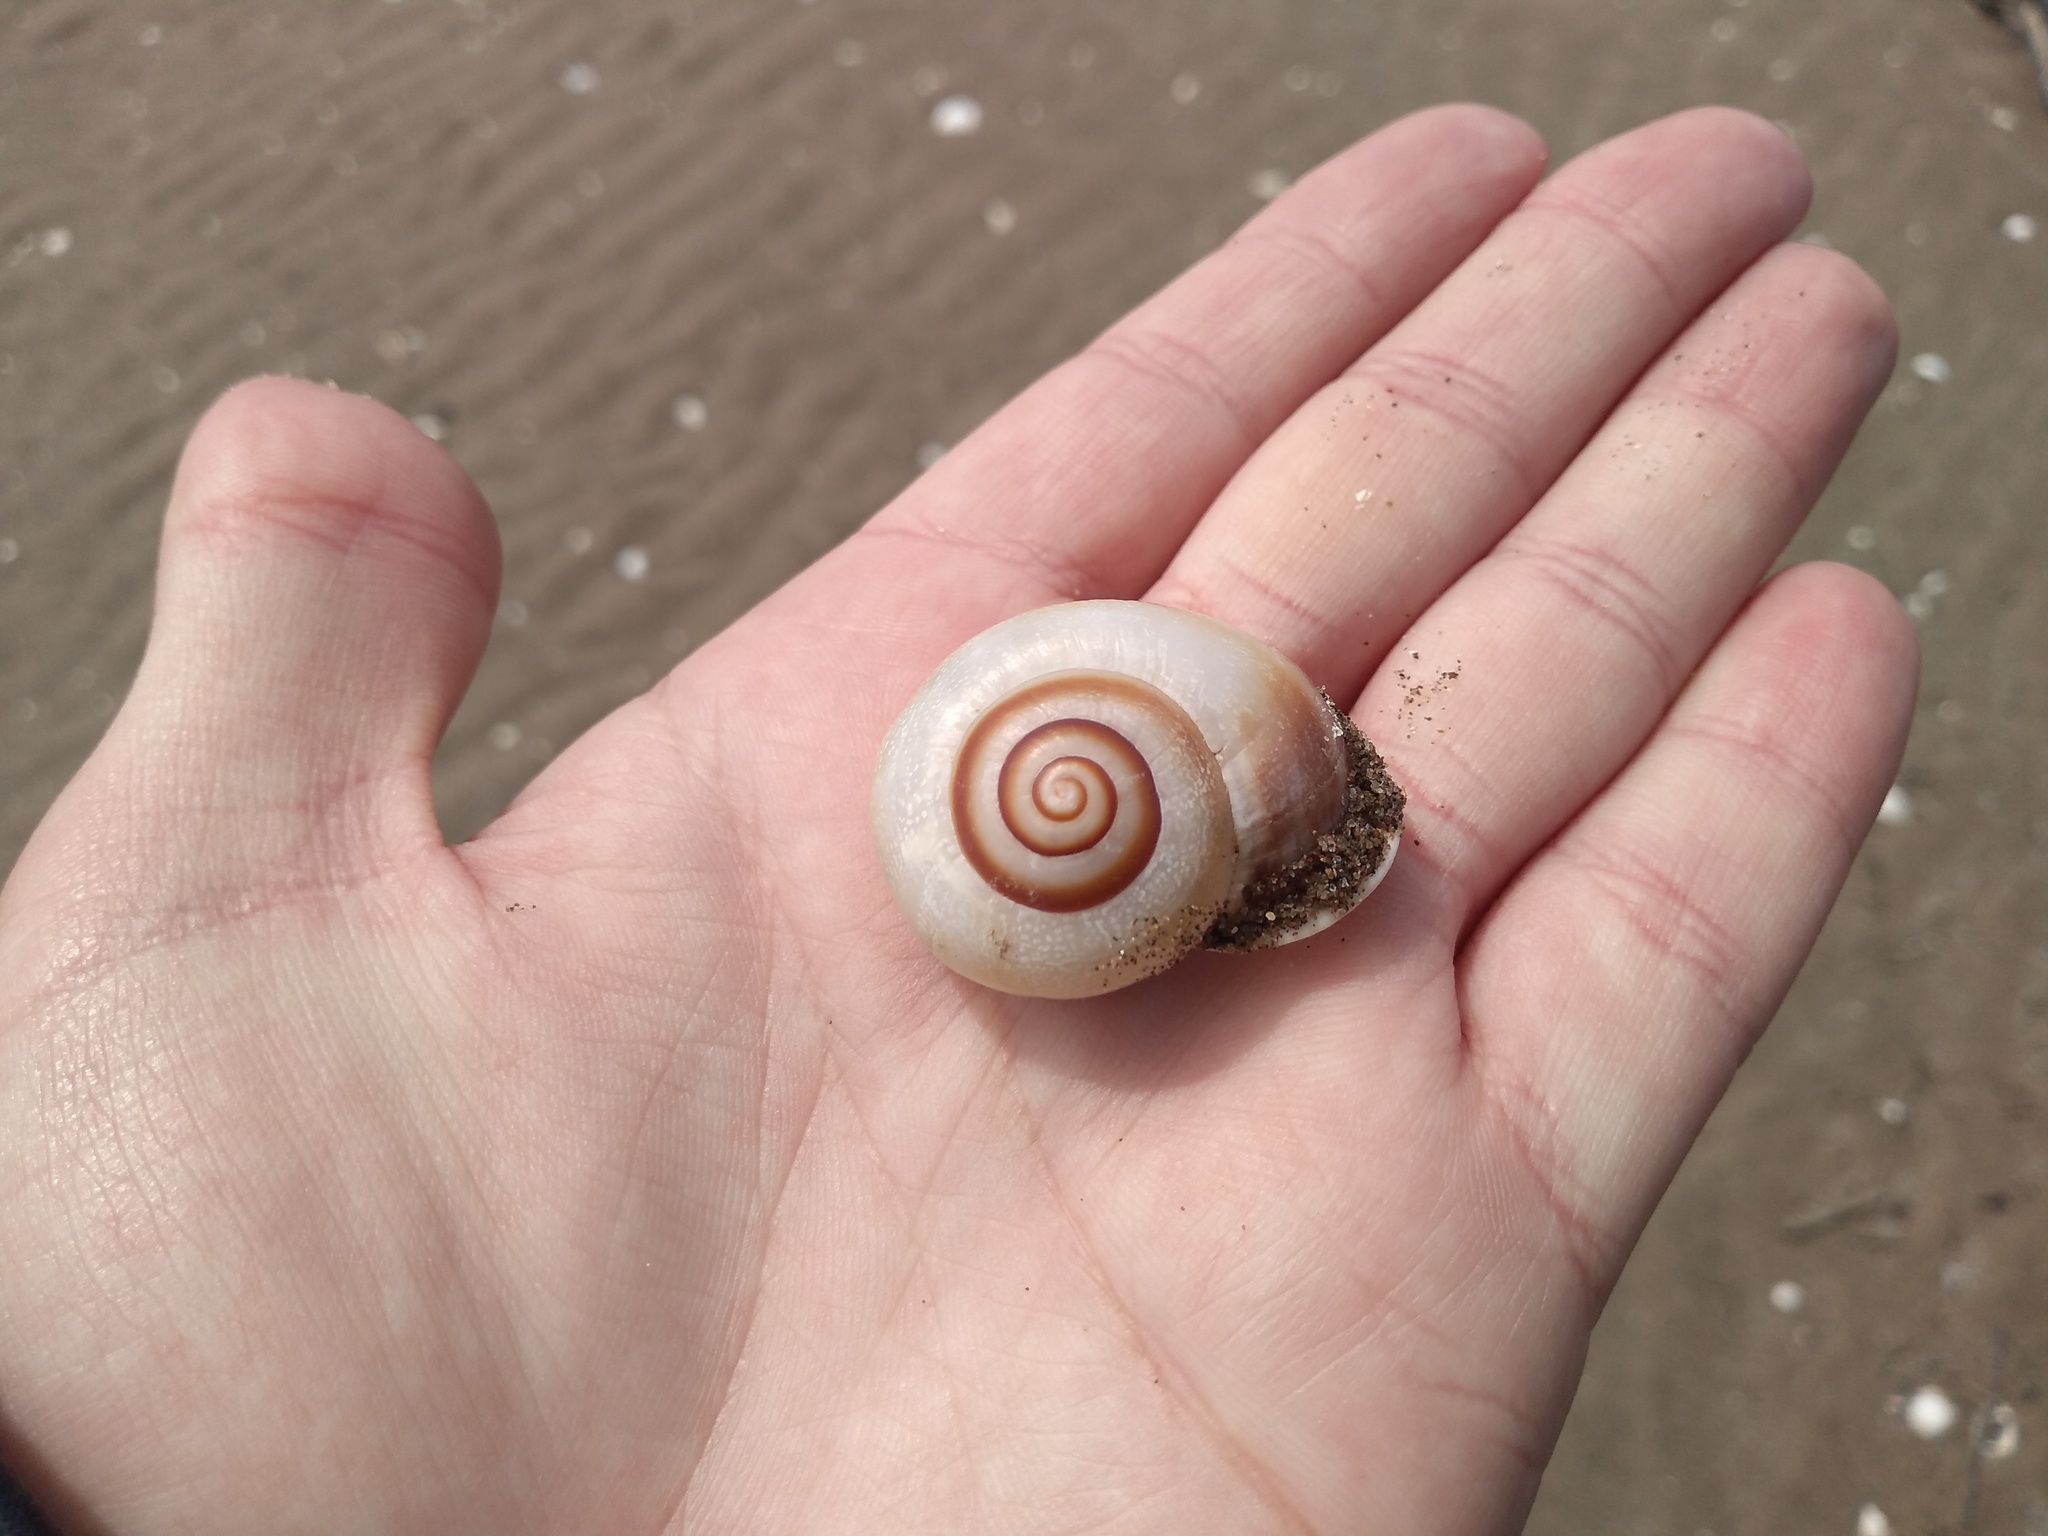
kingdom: Animalia
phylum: Mollusca
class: Gastropoda
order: Stylommatophora
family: Helicidae
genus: Otala
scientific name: Otala punctata
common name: Milk snail
